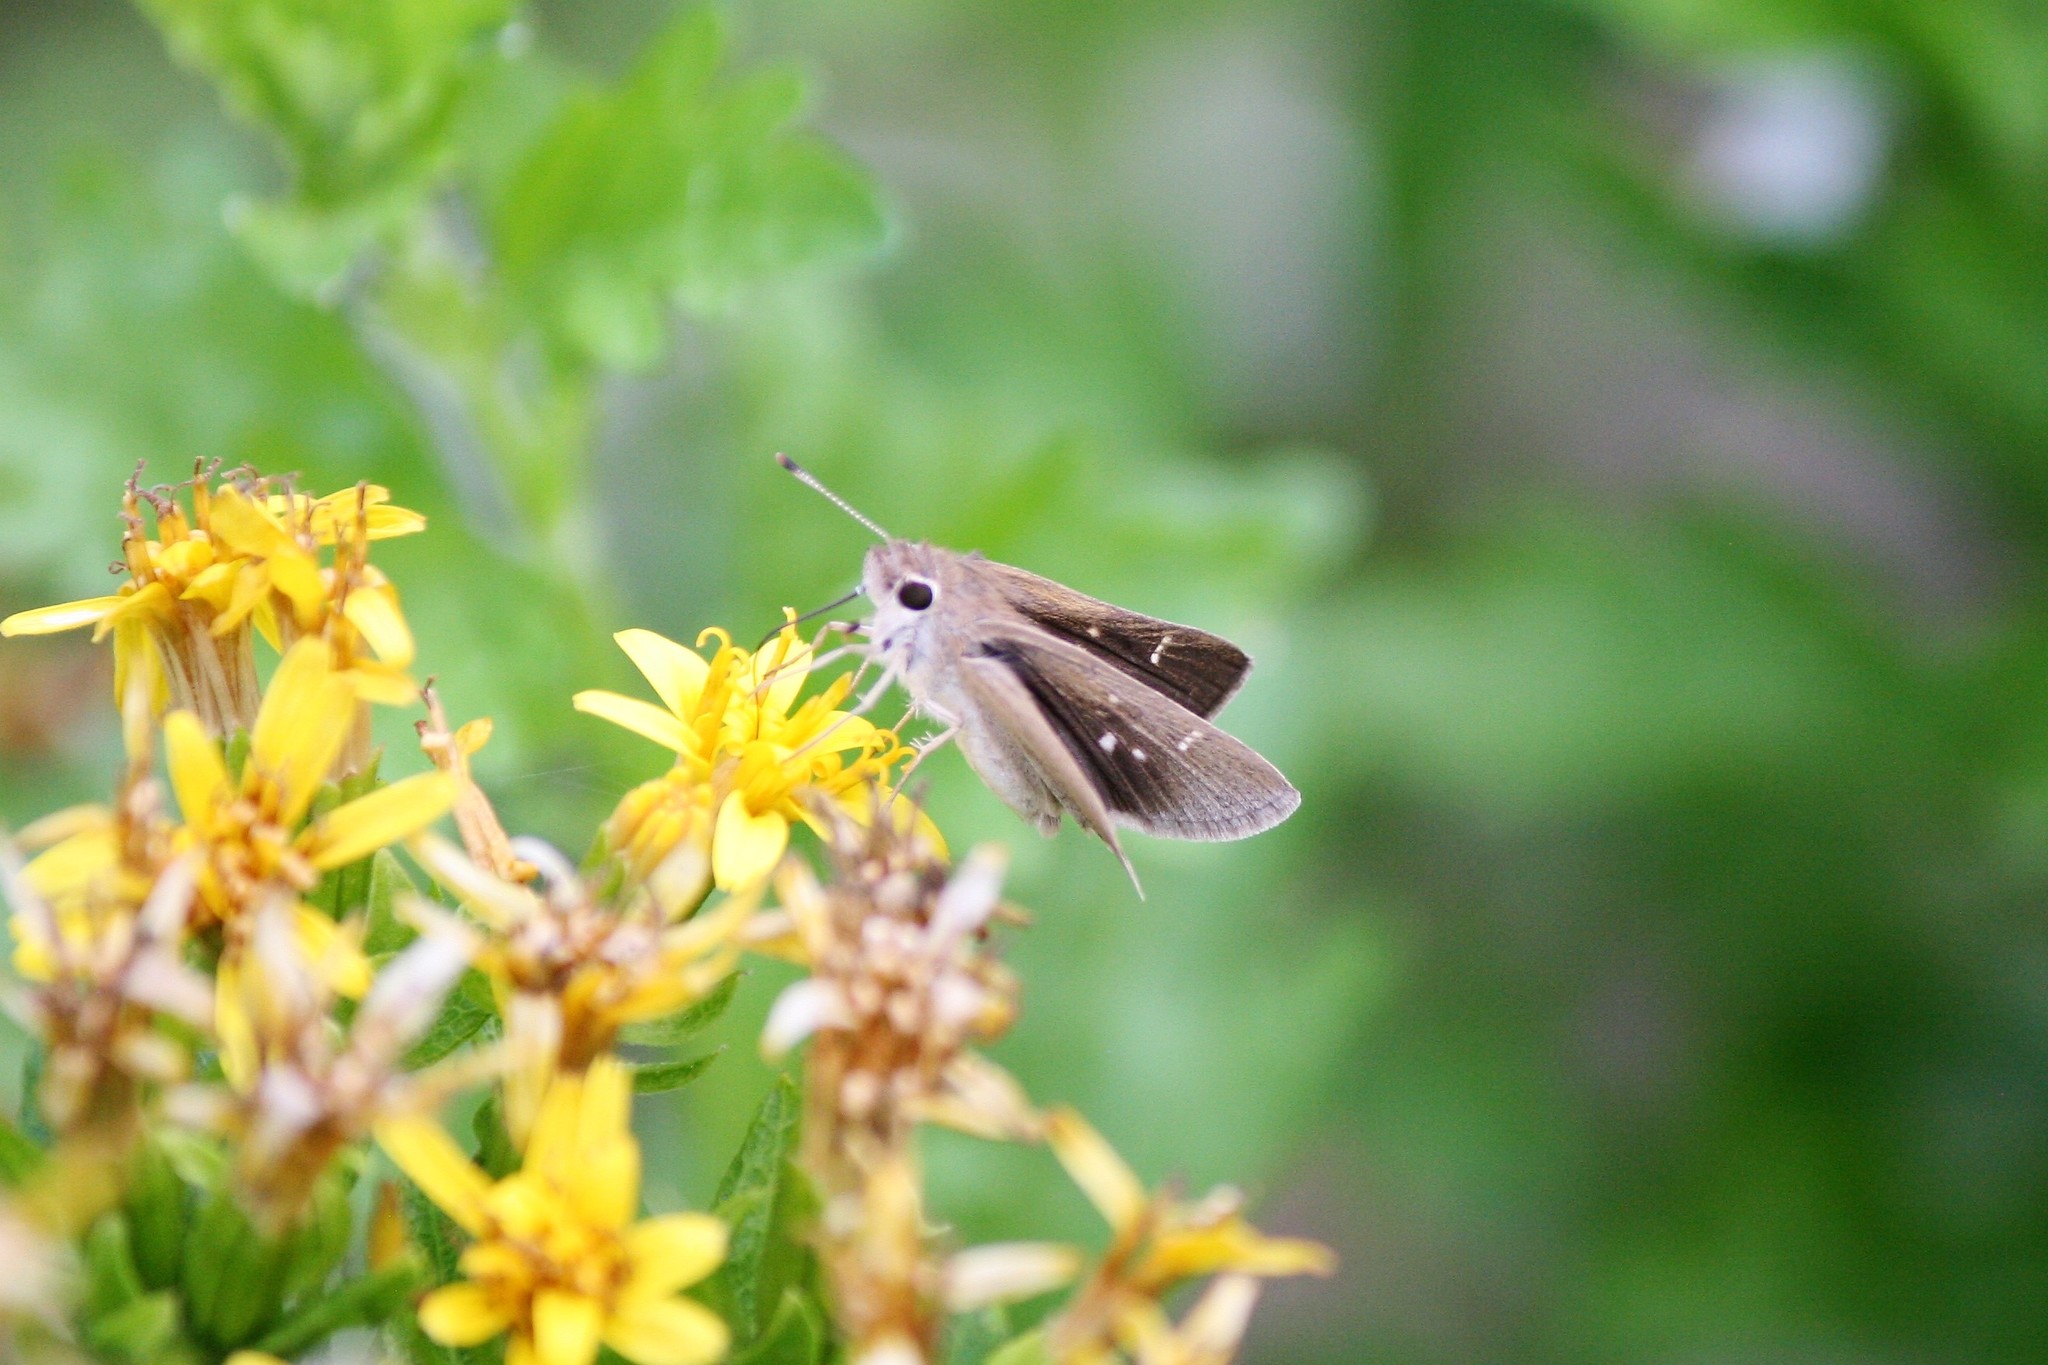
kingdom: Animalia
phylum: Arthropoda
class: Insecta
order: Lepidoptera
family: Hesperiidae
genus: Lerodea
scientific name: Lerodea eufala
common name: Eufala skipper
